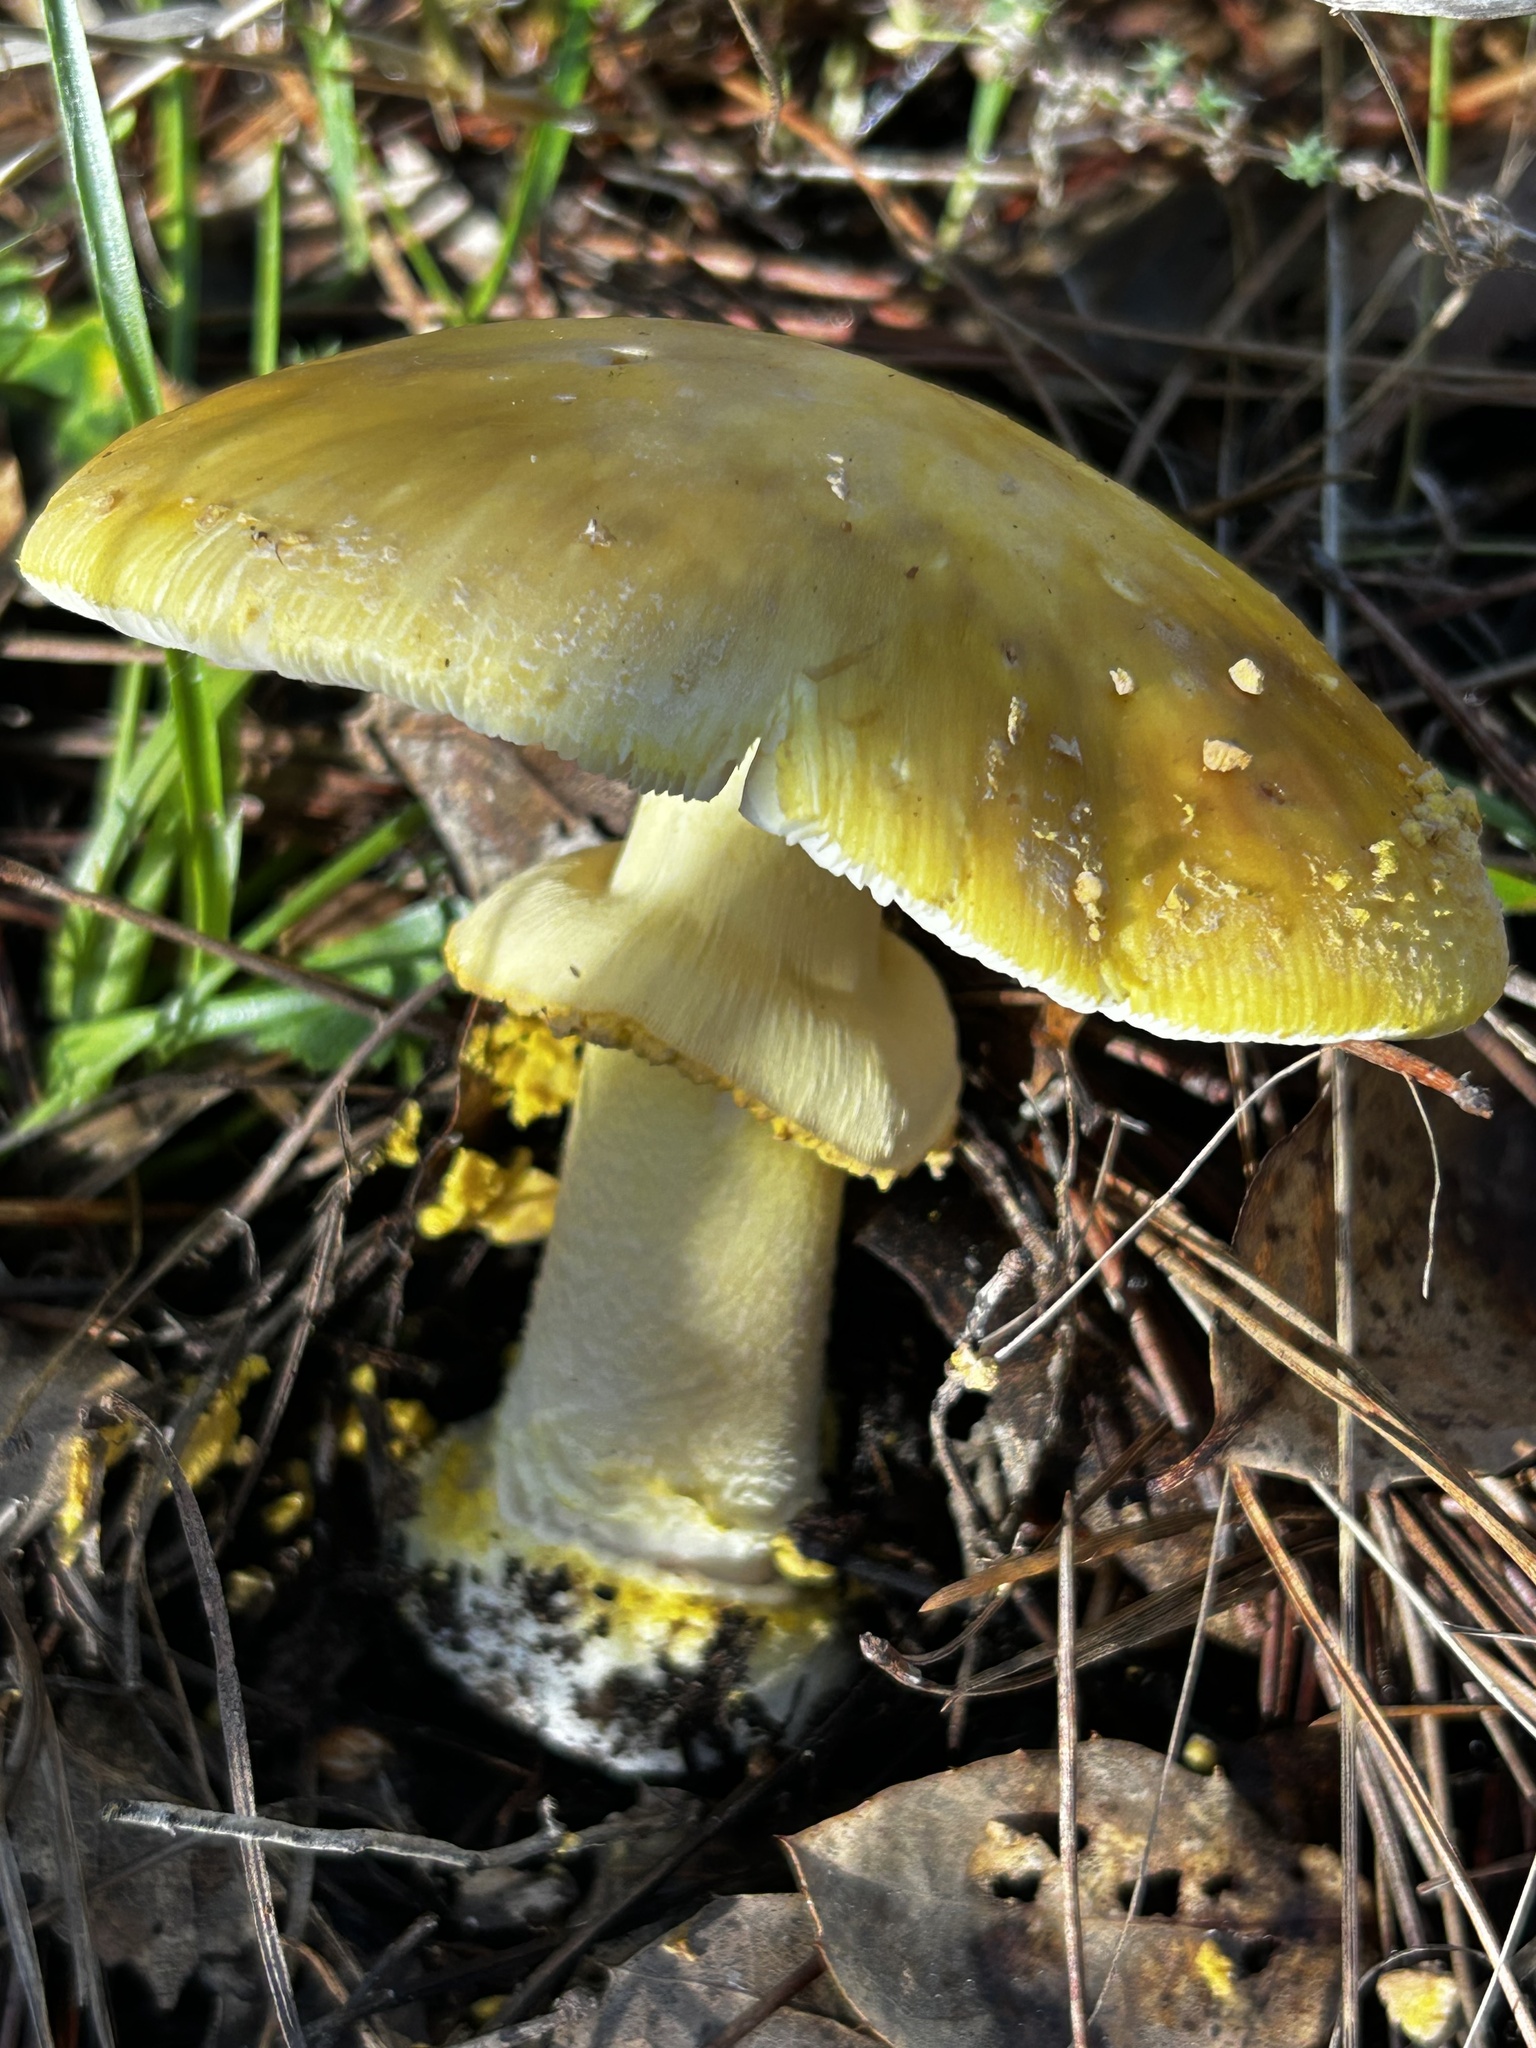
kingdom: Fungi
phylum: Basidiomycota
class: Agaricomycetes
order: Agaricales
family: Amanitaceae
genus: Amanita
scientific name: Amanita augusta
